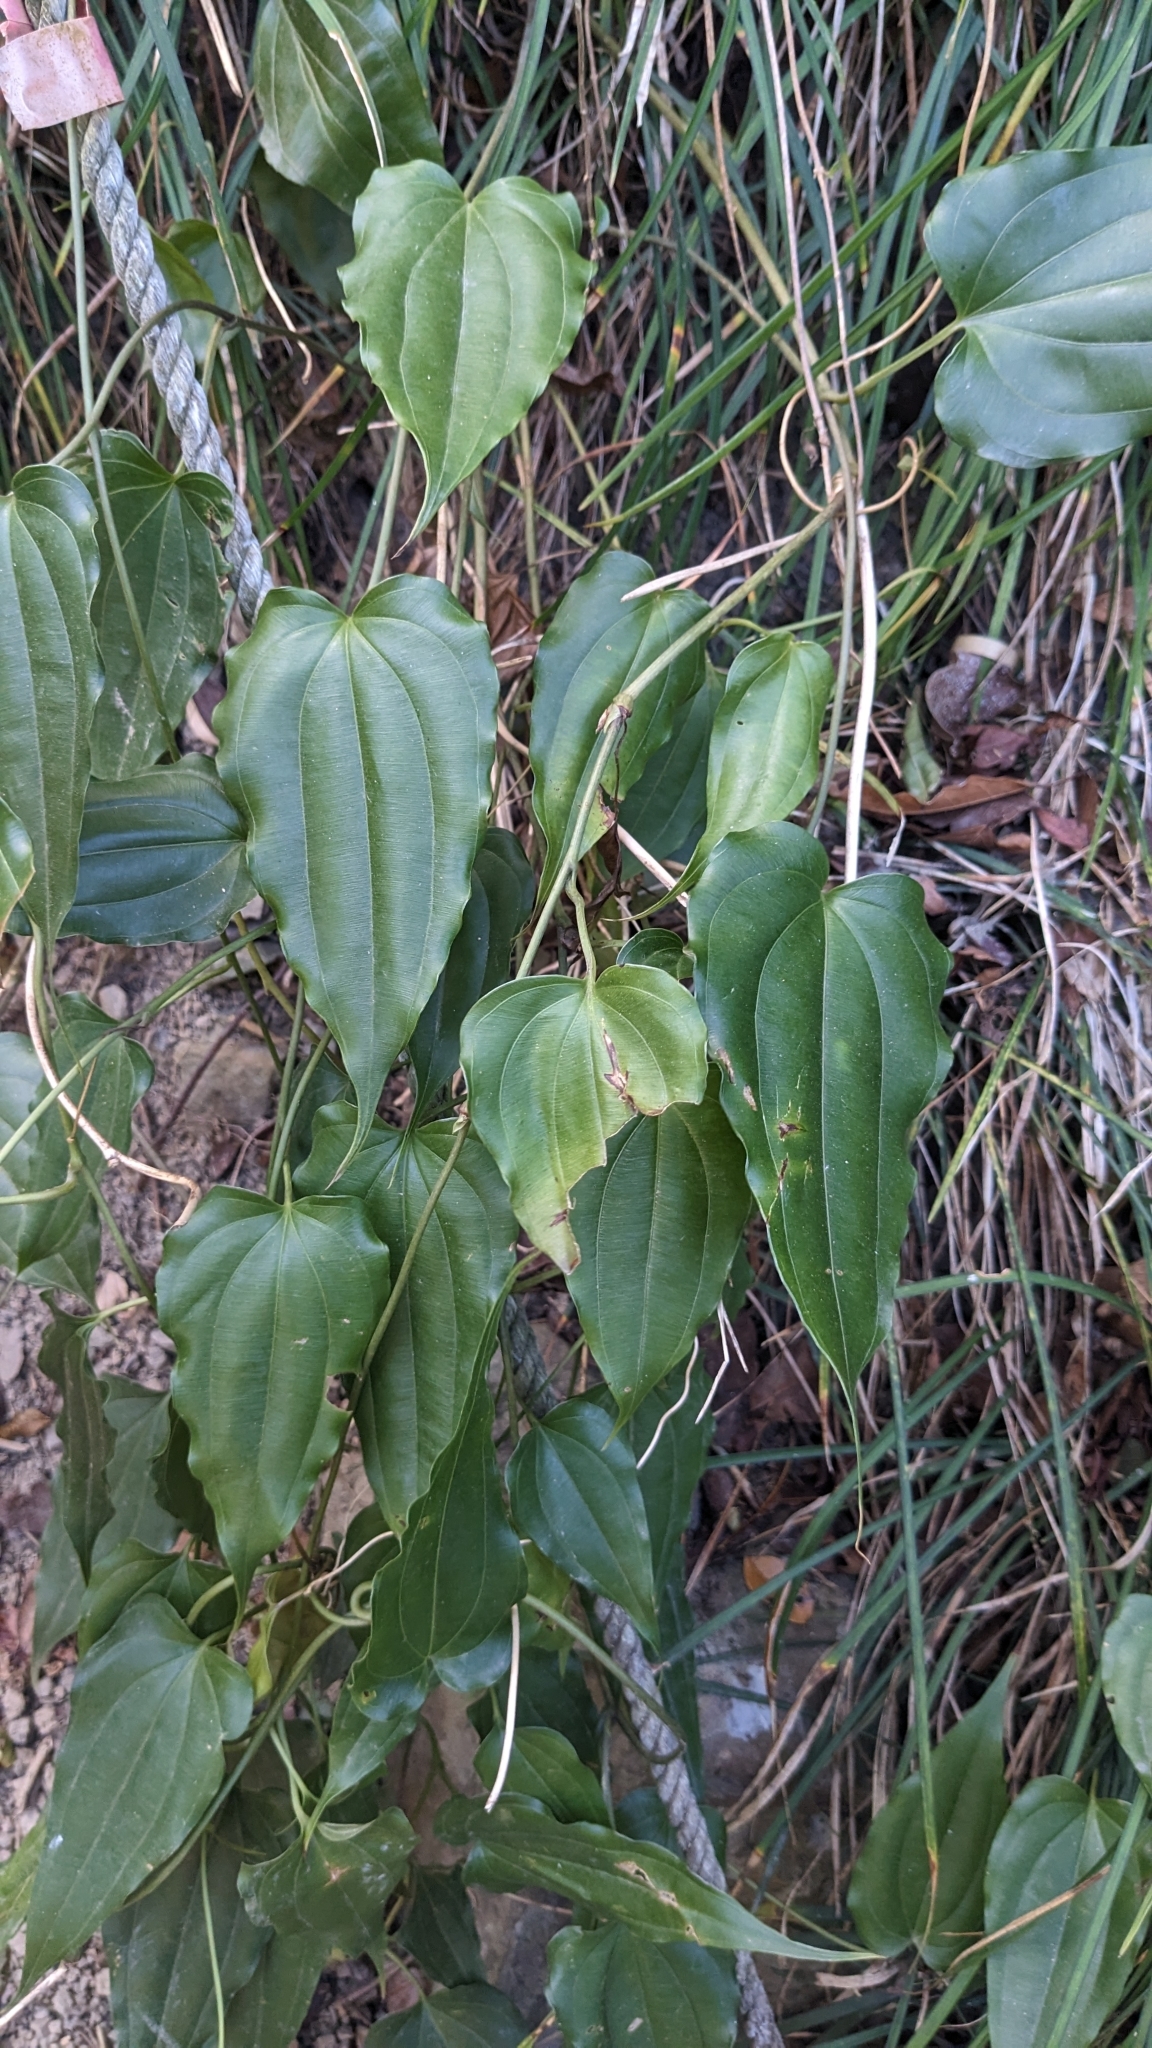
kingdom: Plantae
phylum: Tracheophyta
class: Liliopsida
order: Pandanales
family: Stemonaceae
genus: Stemona
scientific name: Stemona tuberosa
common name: Stemona
